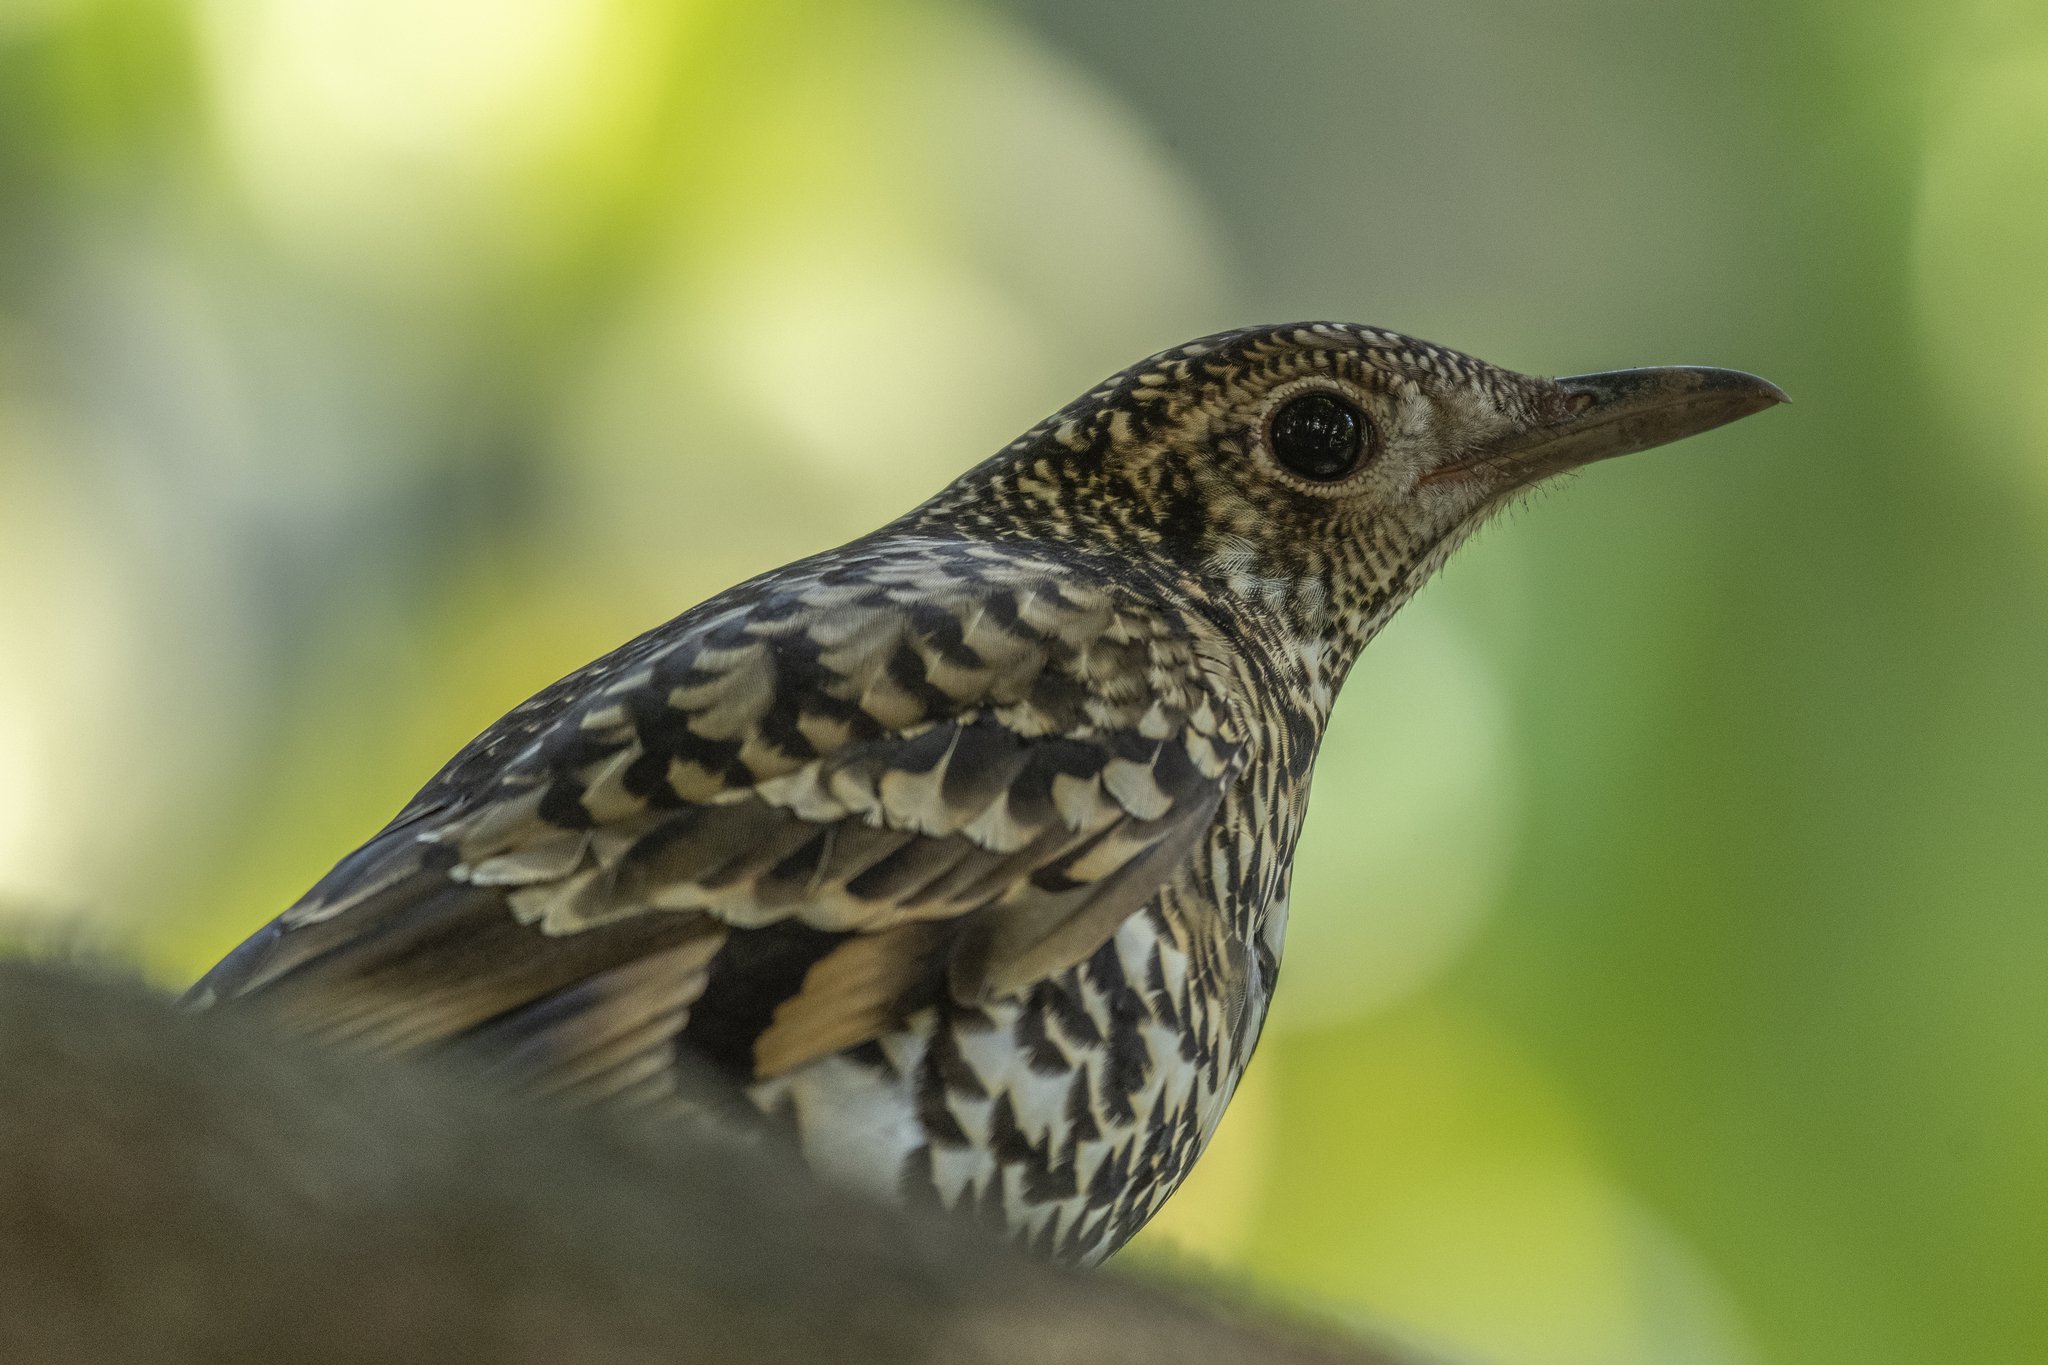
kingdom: Animalia
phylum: Chordata
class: Aves
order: Passeriformes
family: Turdidae
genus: Zoothera
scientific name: Zoothera aurea
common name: White's thrush
